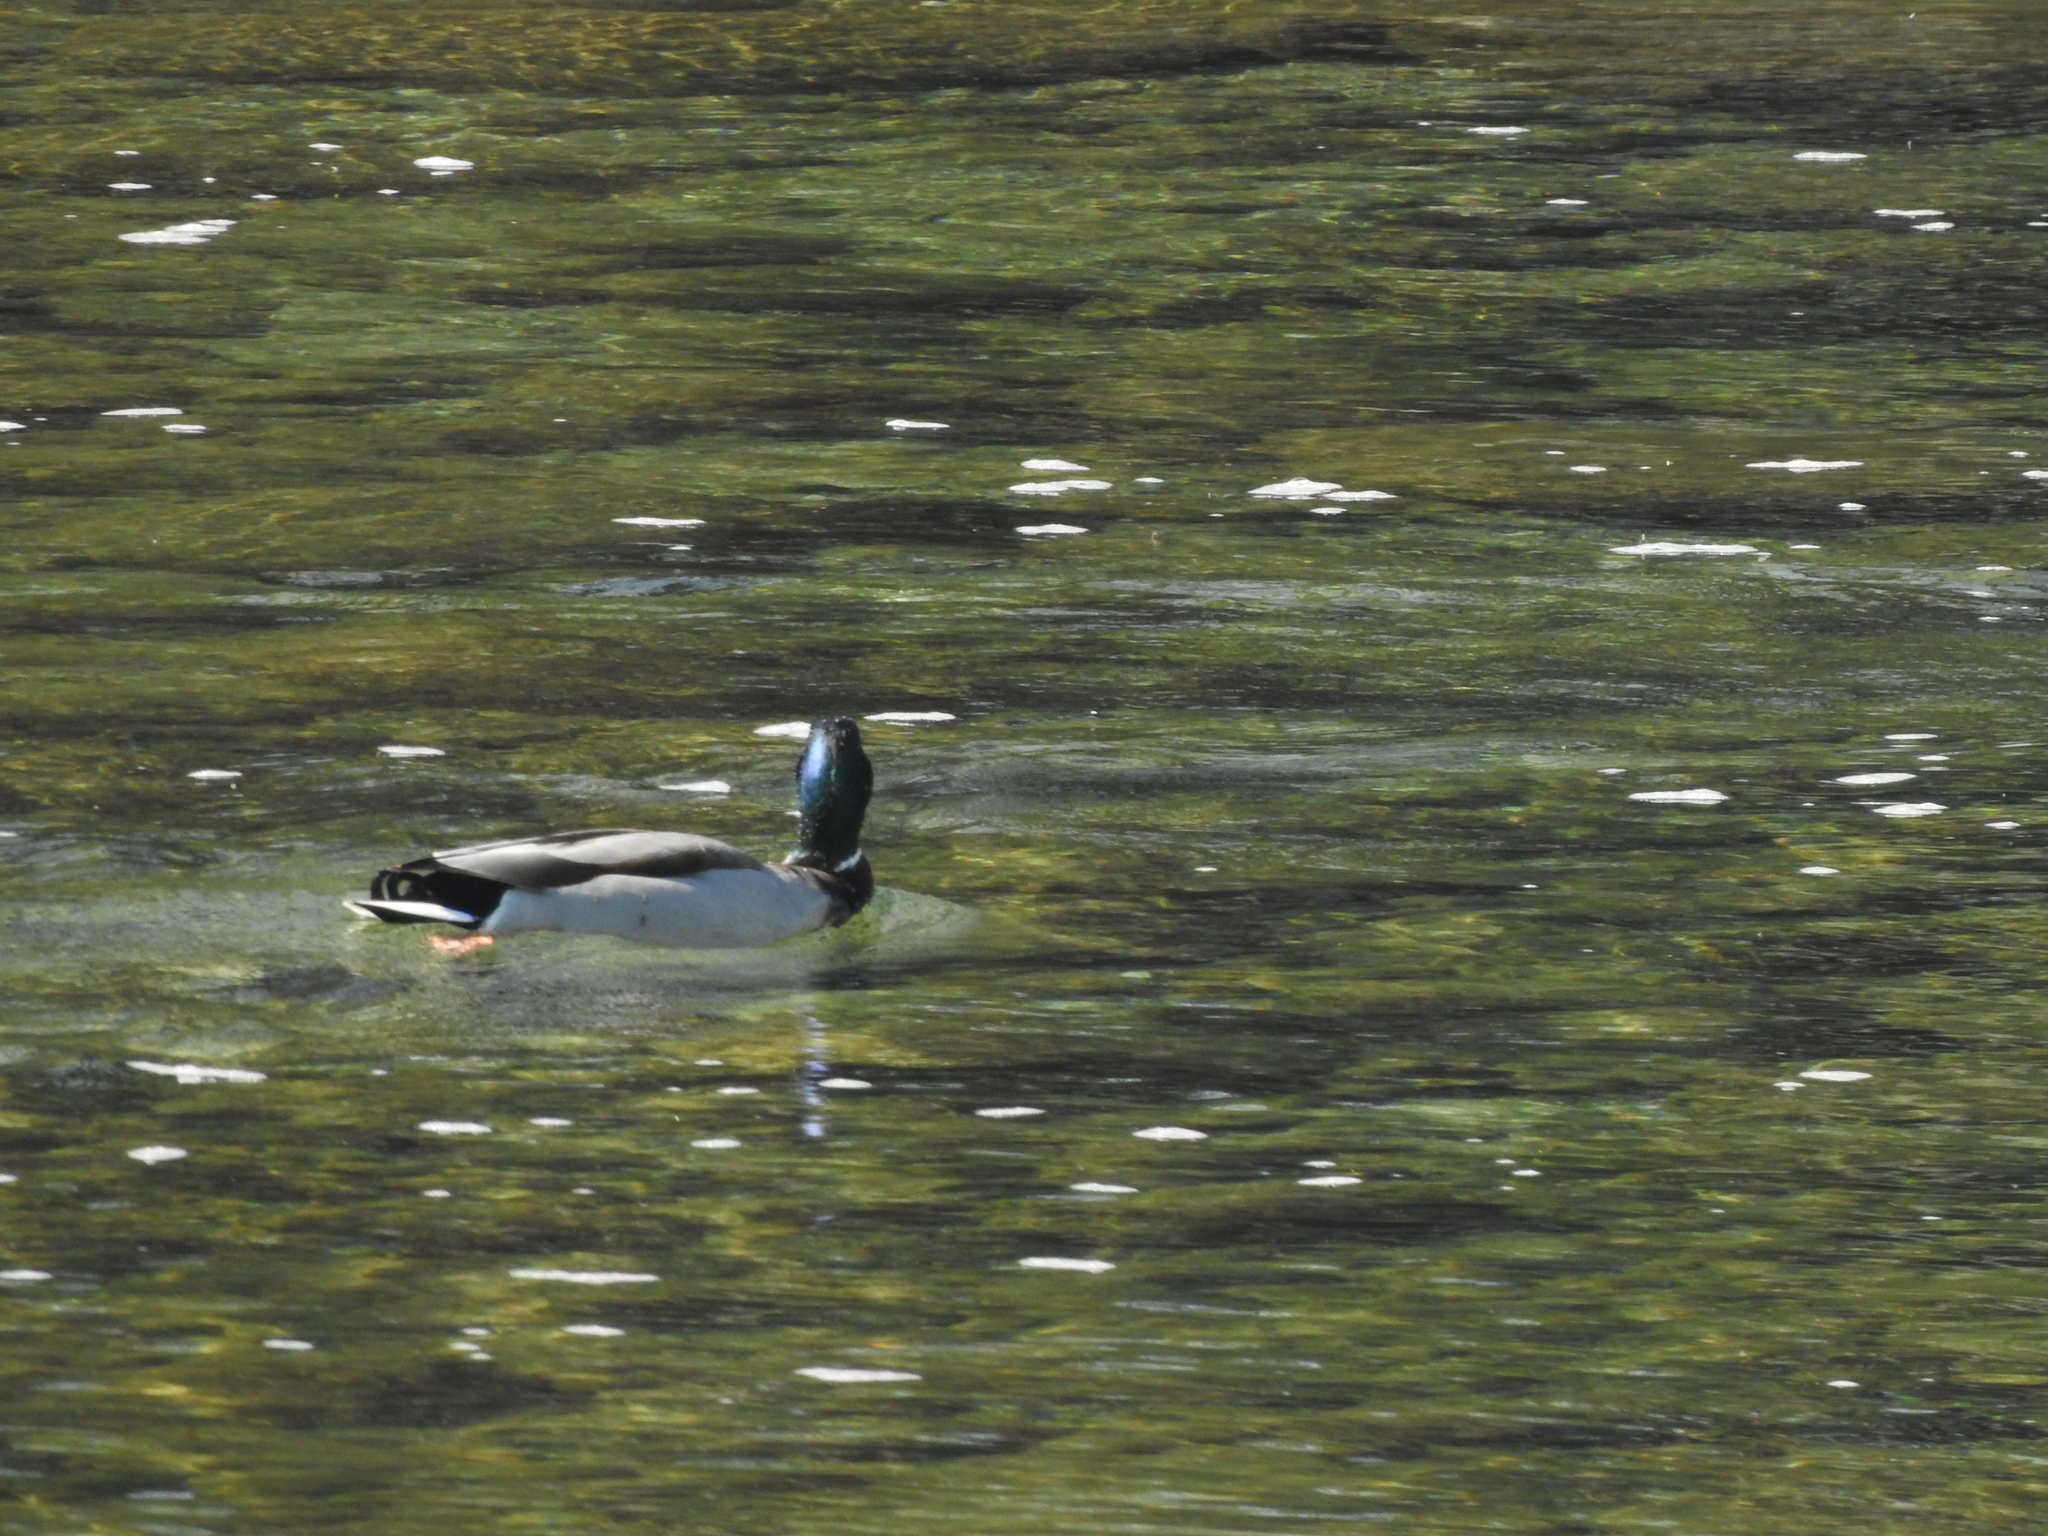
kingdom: Animalia
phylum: Chordata
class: Aves
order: Anseriformes
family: Anatidae
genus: Anas
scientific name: Anas platyrhynchos
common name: Mallard
